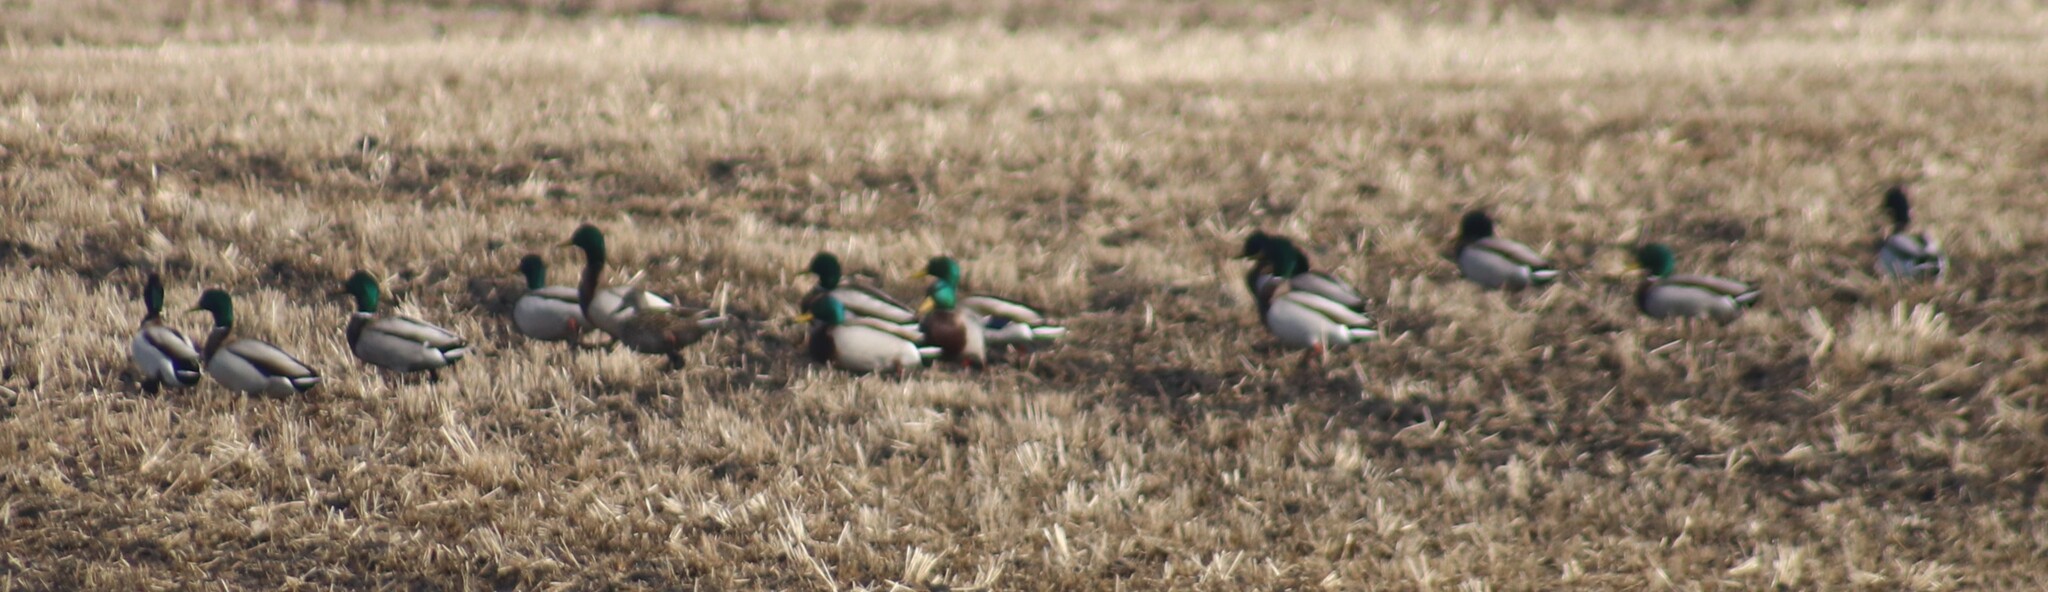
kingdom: Animalia
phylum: Chordata
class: Aves
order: Anseriformes
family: Anatidae
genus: Anas
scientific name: Anas platyrhynchos
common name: Mallard
